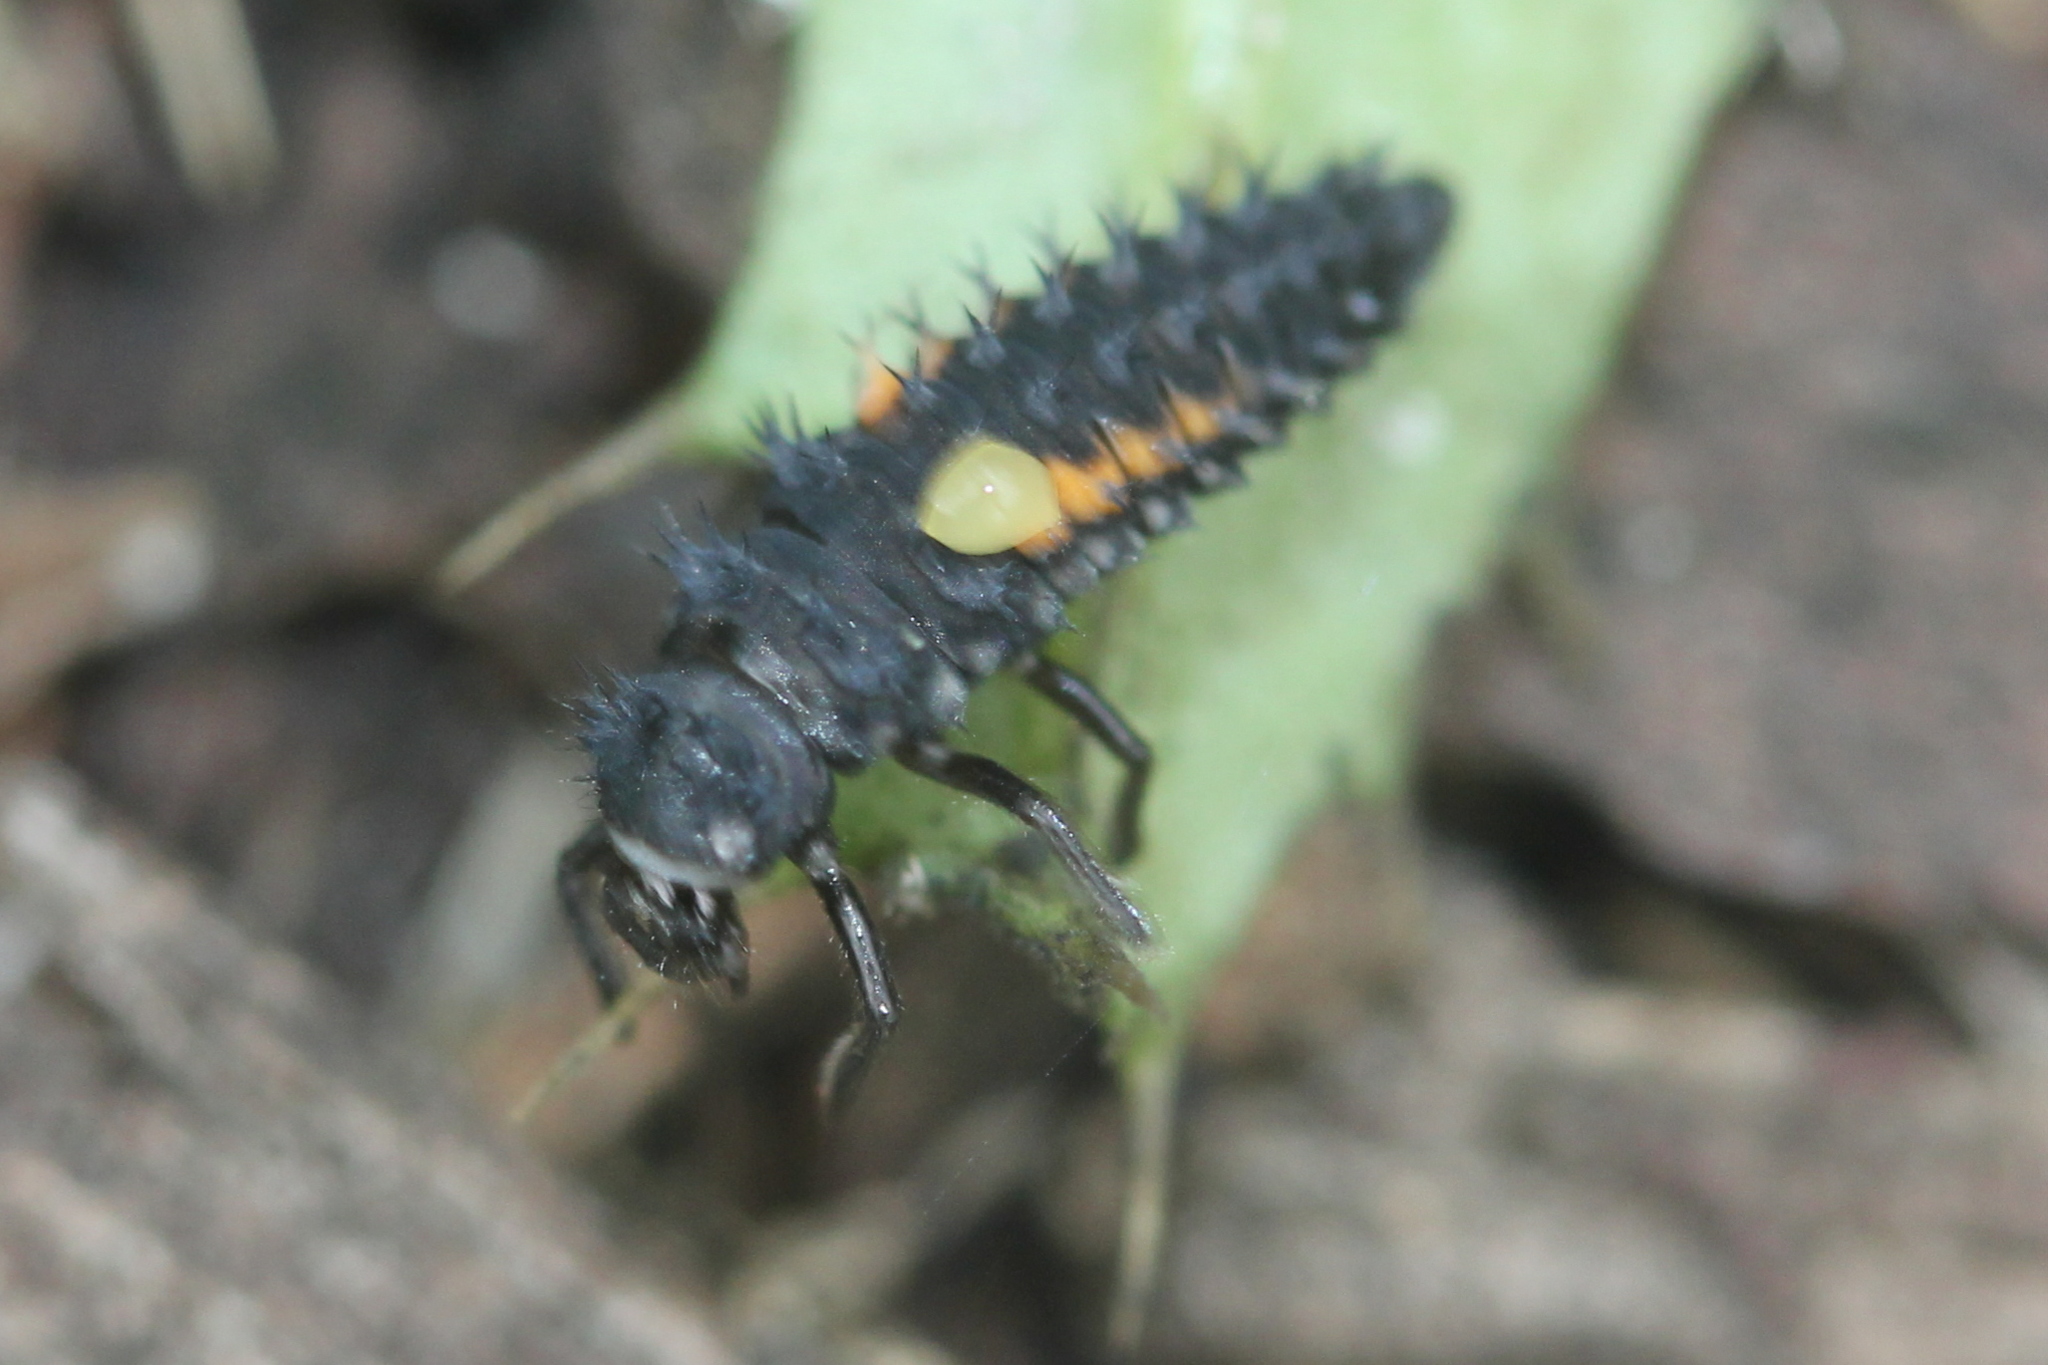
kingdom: Animalia
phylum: Arthropoda
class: Insecta
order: Coleoptera
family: Coccinellidae
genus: Harmonia
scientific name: Harmonia axyridis
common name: Harlequin ladybird
